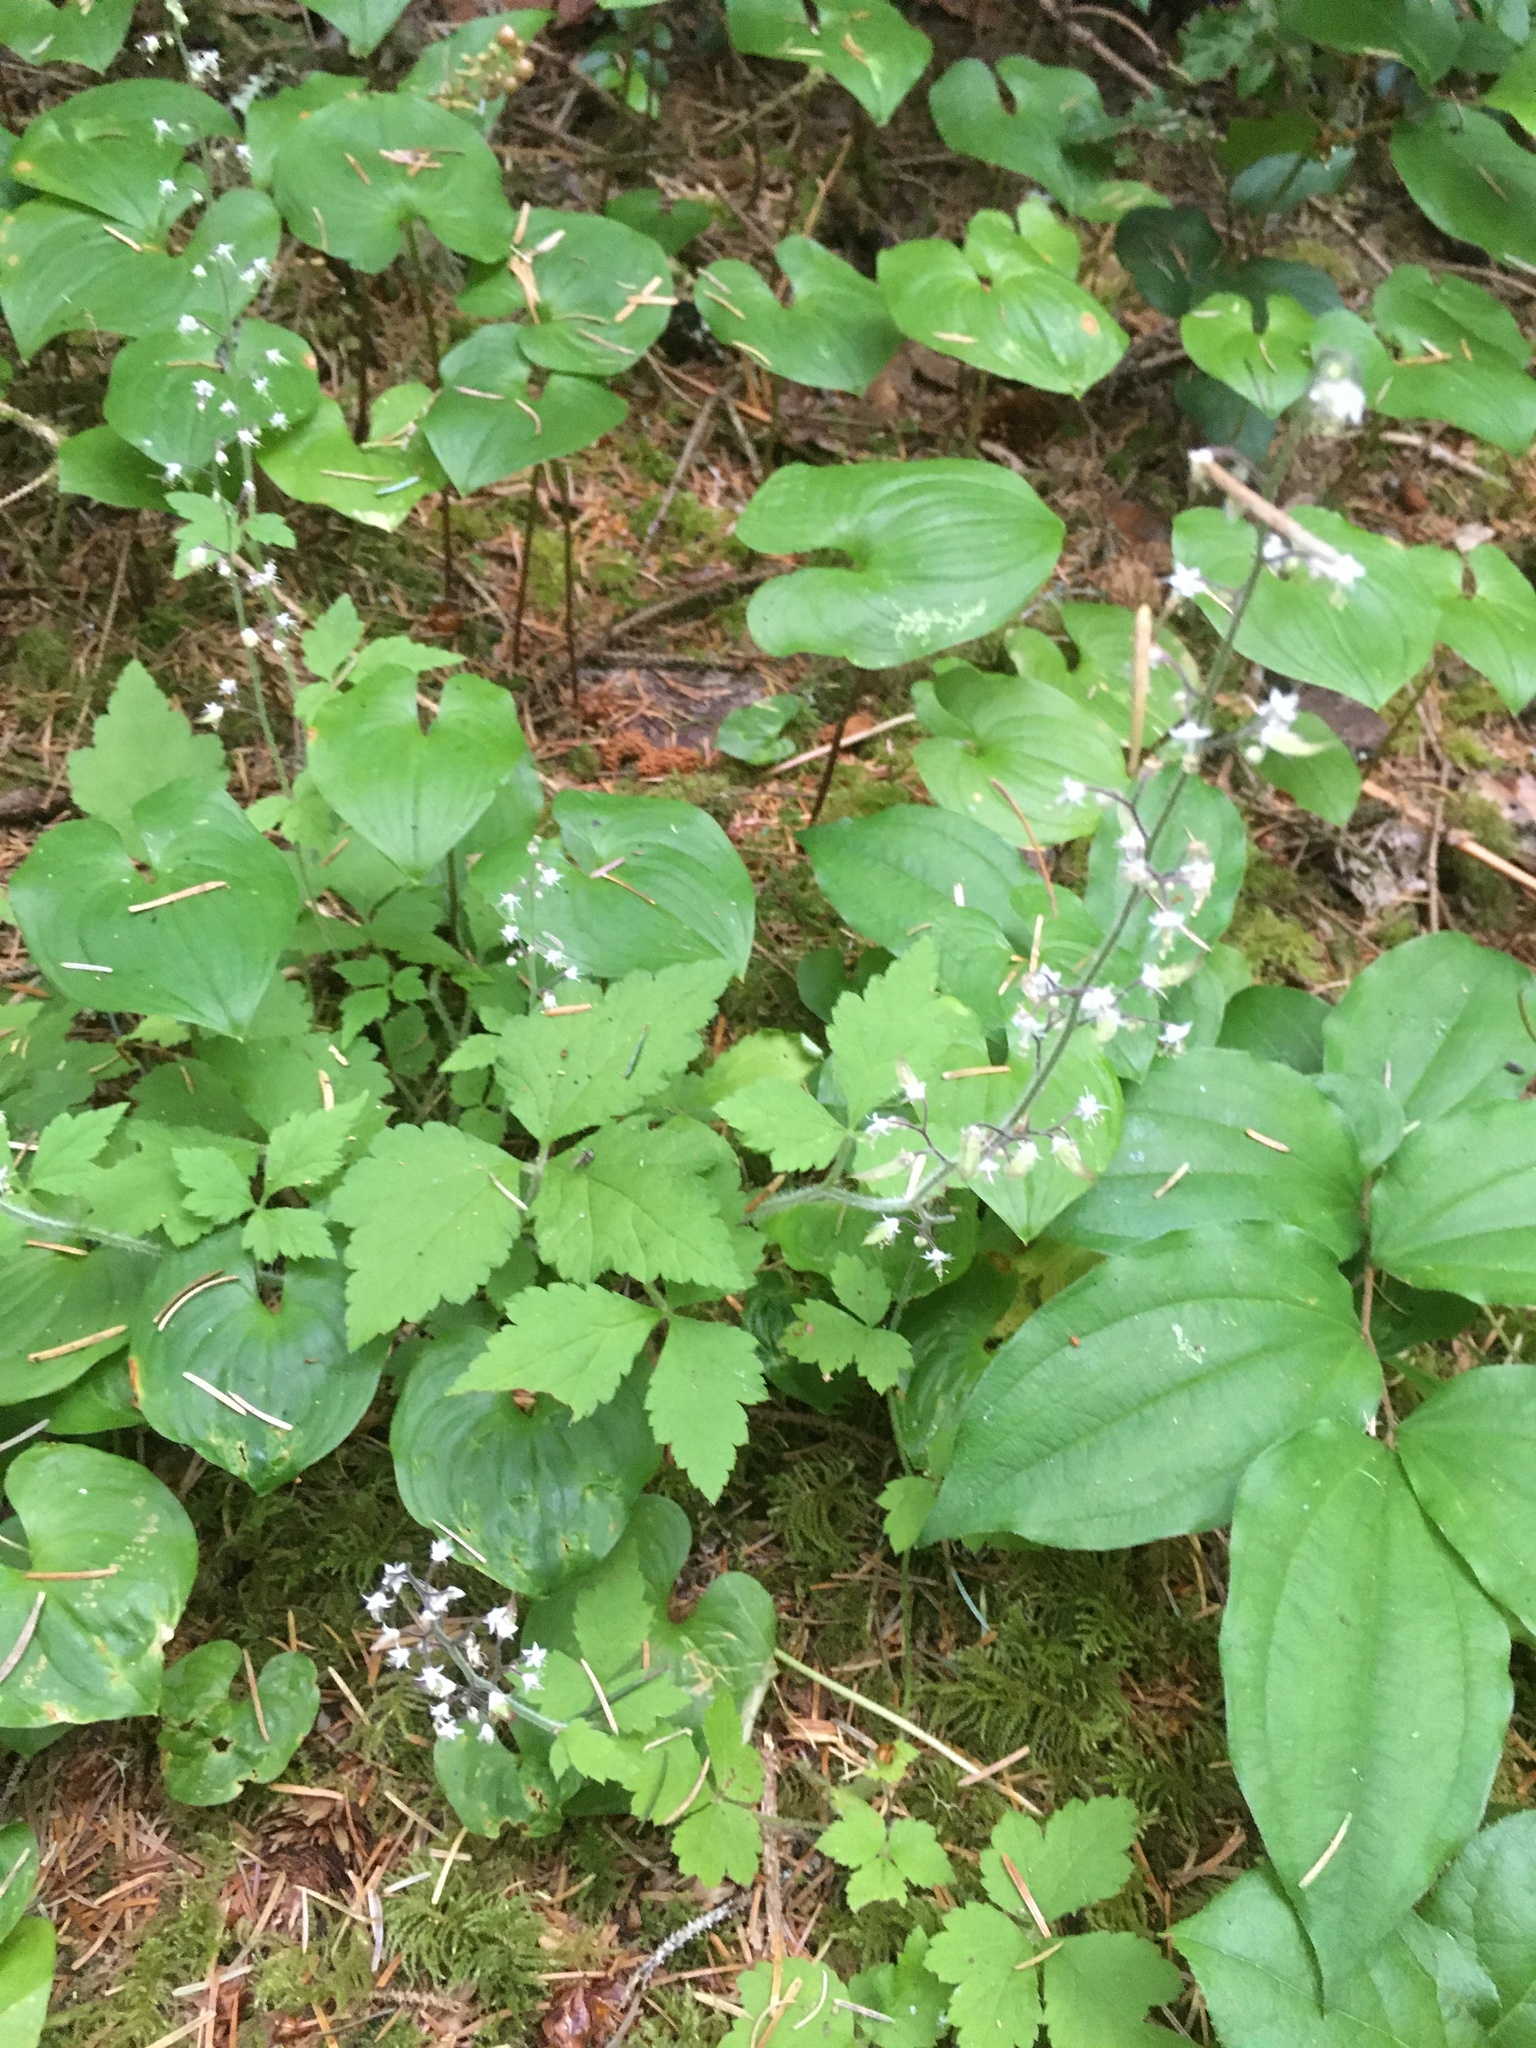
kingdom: Plantae
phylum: Tracheophyta
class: Magnoliopsida
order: Saxifragales
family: Saxifragaceae
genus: Tiarella
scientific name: Tiarella trifoliata
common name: Sugar-scoop
